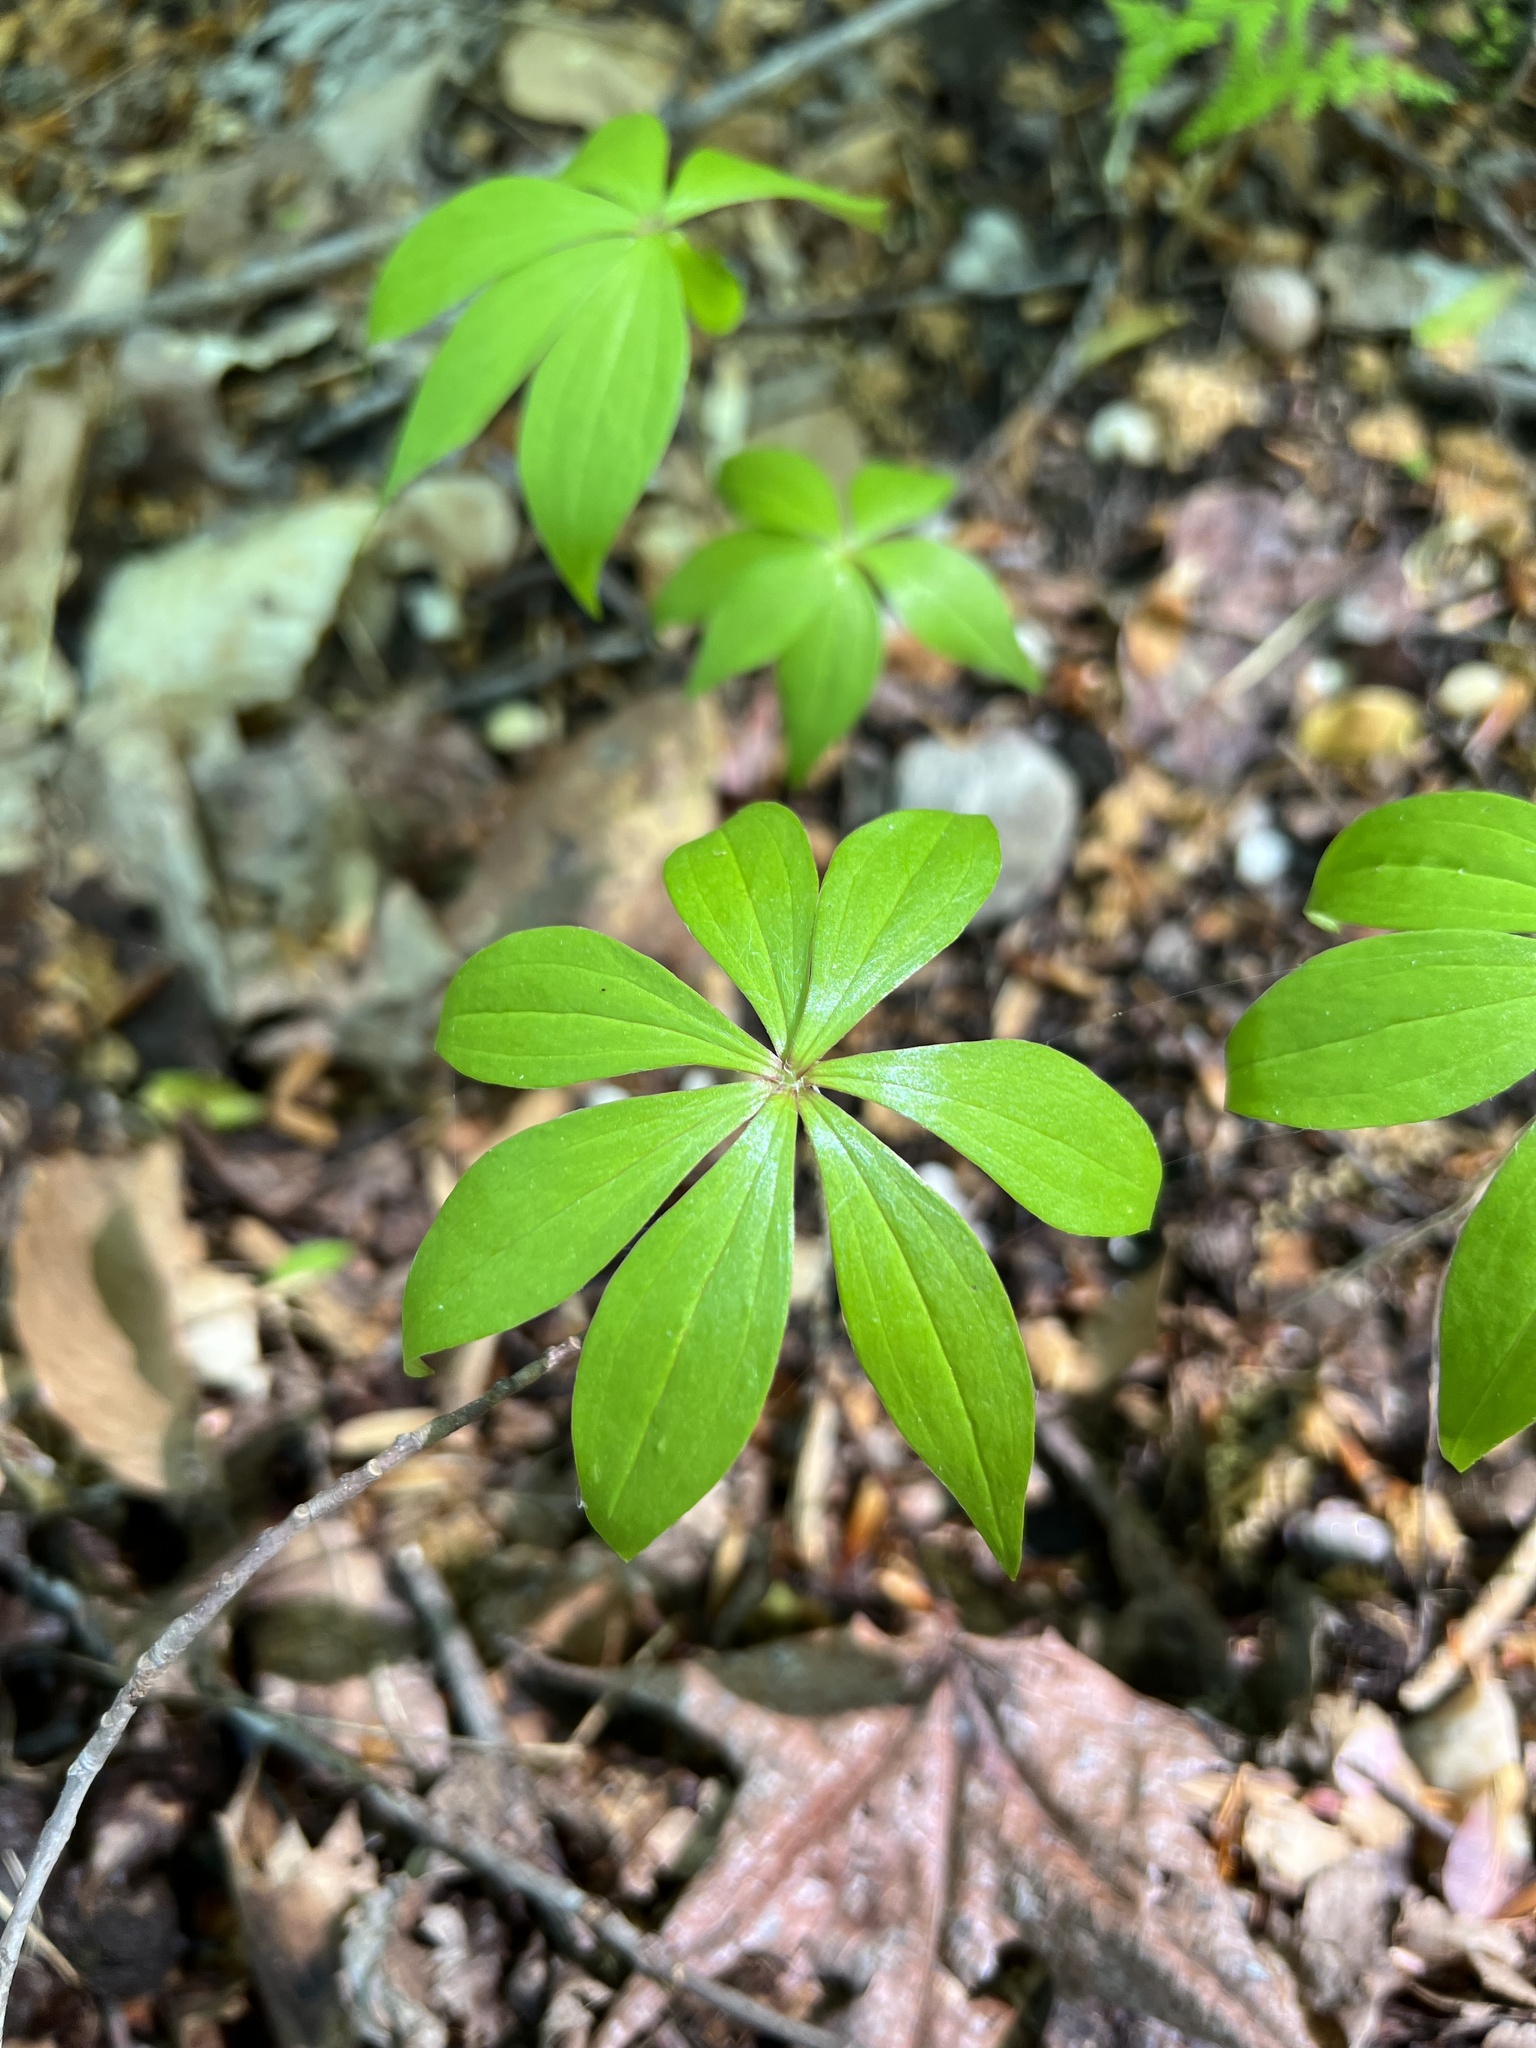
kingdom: Plantae
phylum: Tracheophyta
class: Liliopsida
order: Liliales
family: Liliaceae
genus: Medeola
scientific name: Medeola virginiana
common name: Indian cucumber-root
